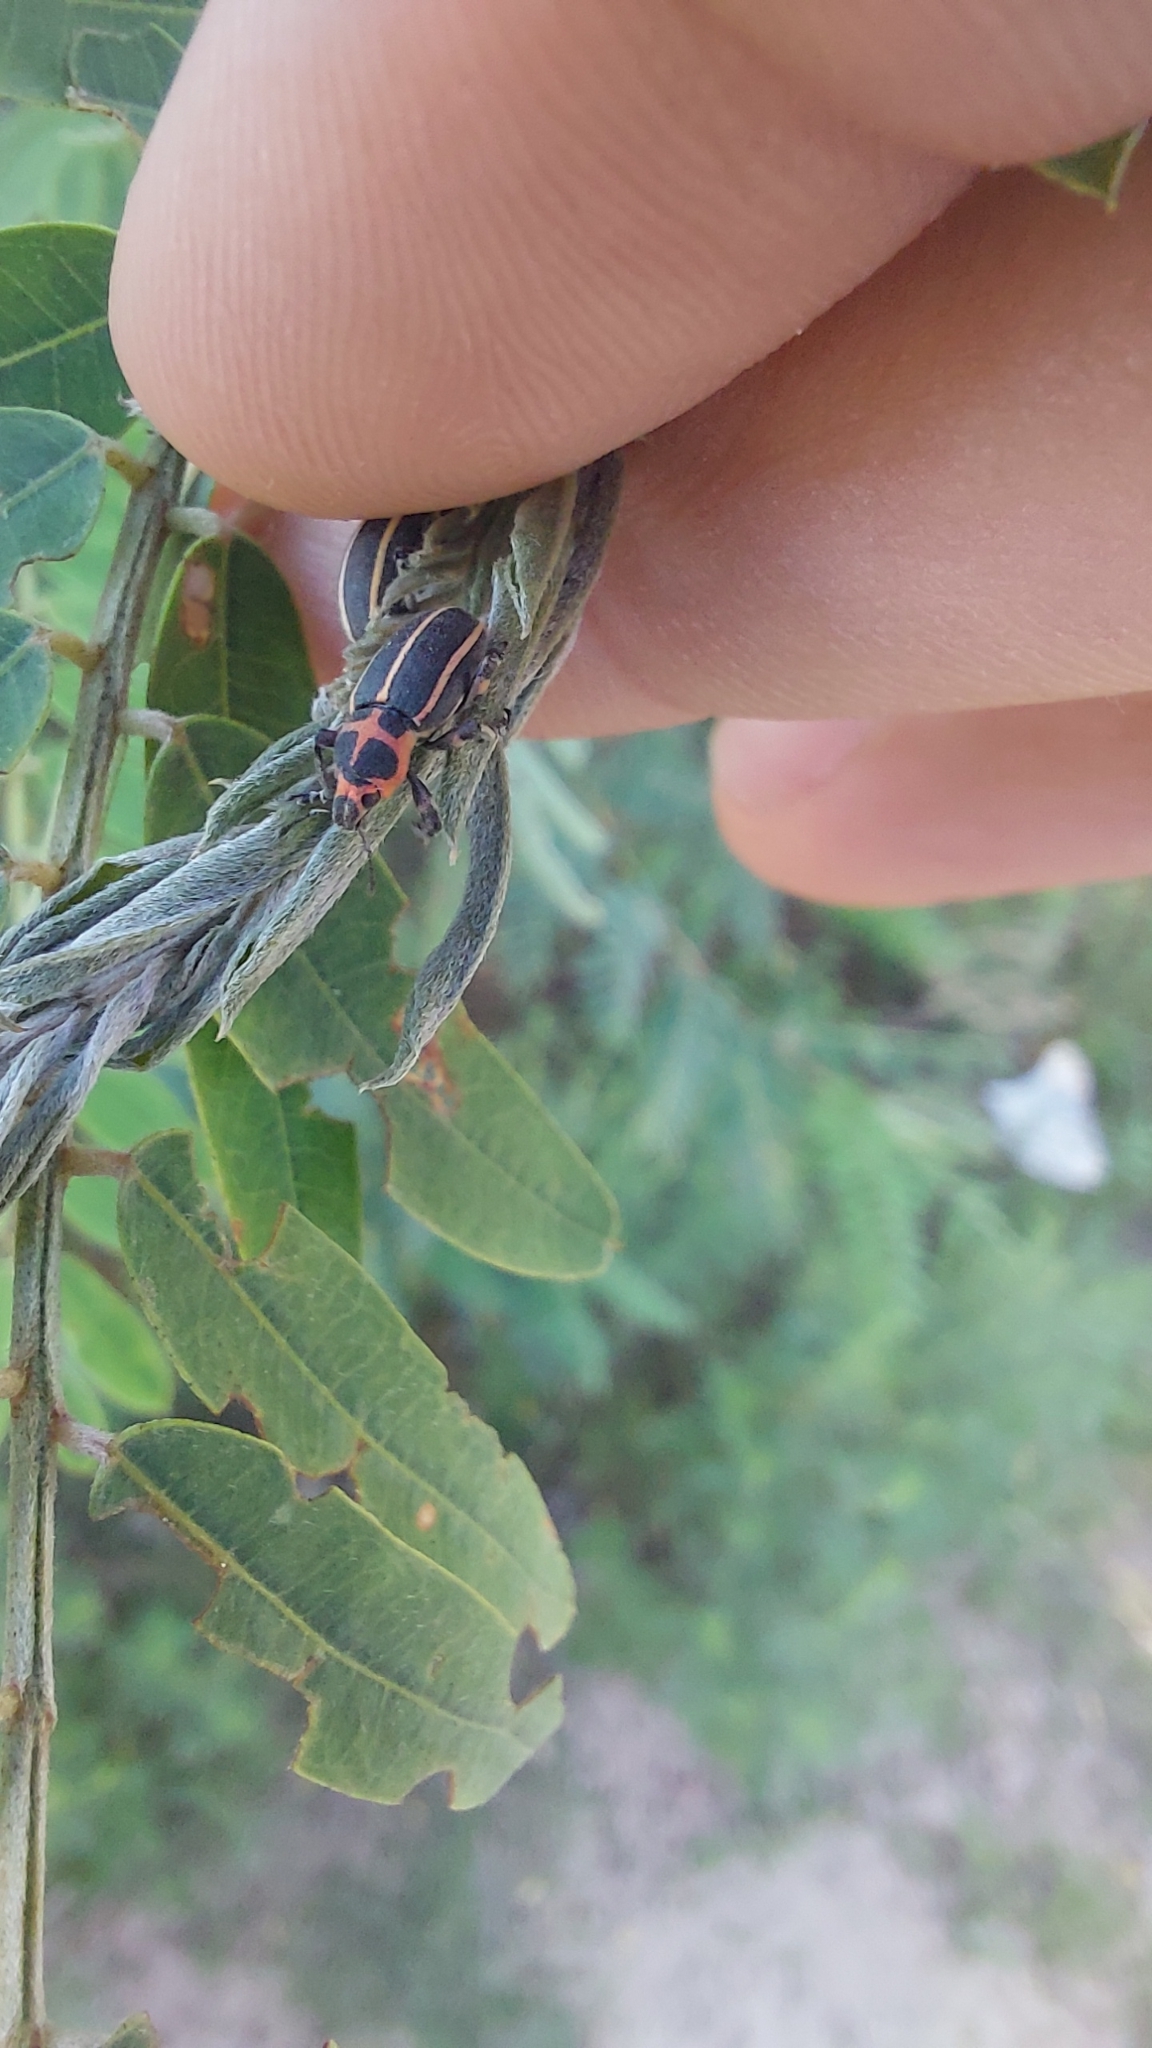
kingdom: Animalia
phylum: Arthropoda
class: Insecta
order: Coleoptera
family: Curculionidae
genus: Eudiagogus
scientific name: Eudiagogus episcopalis
